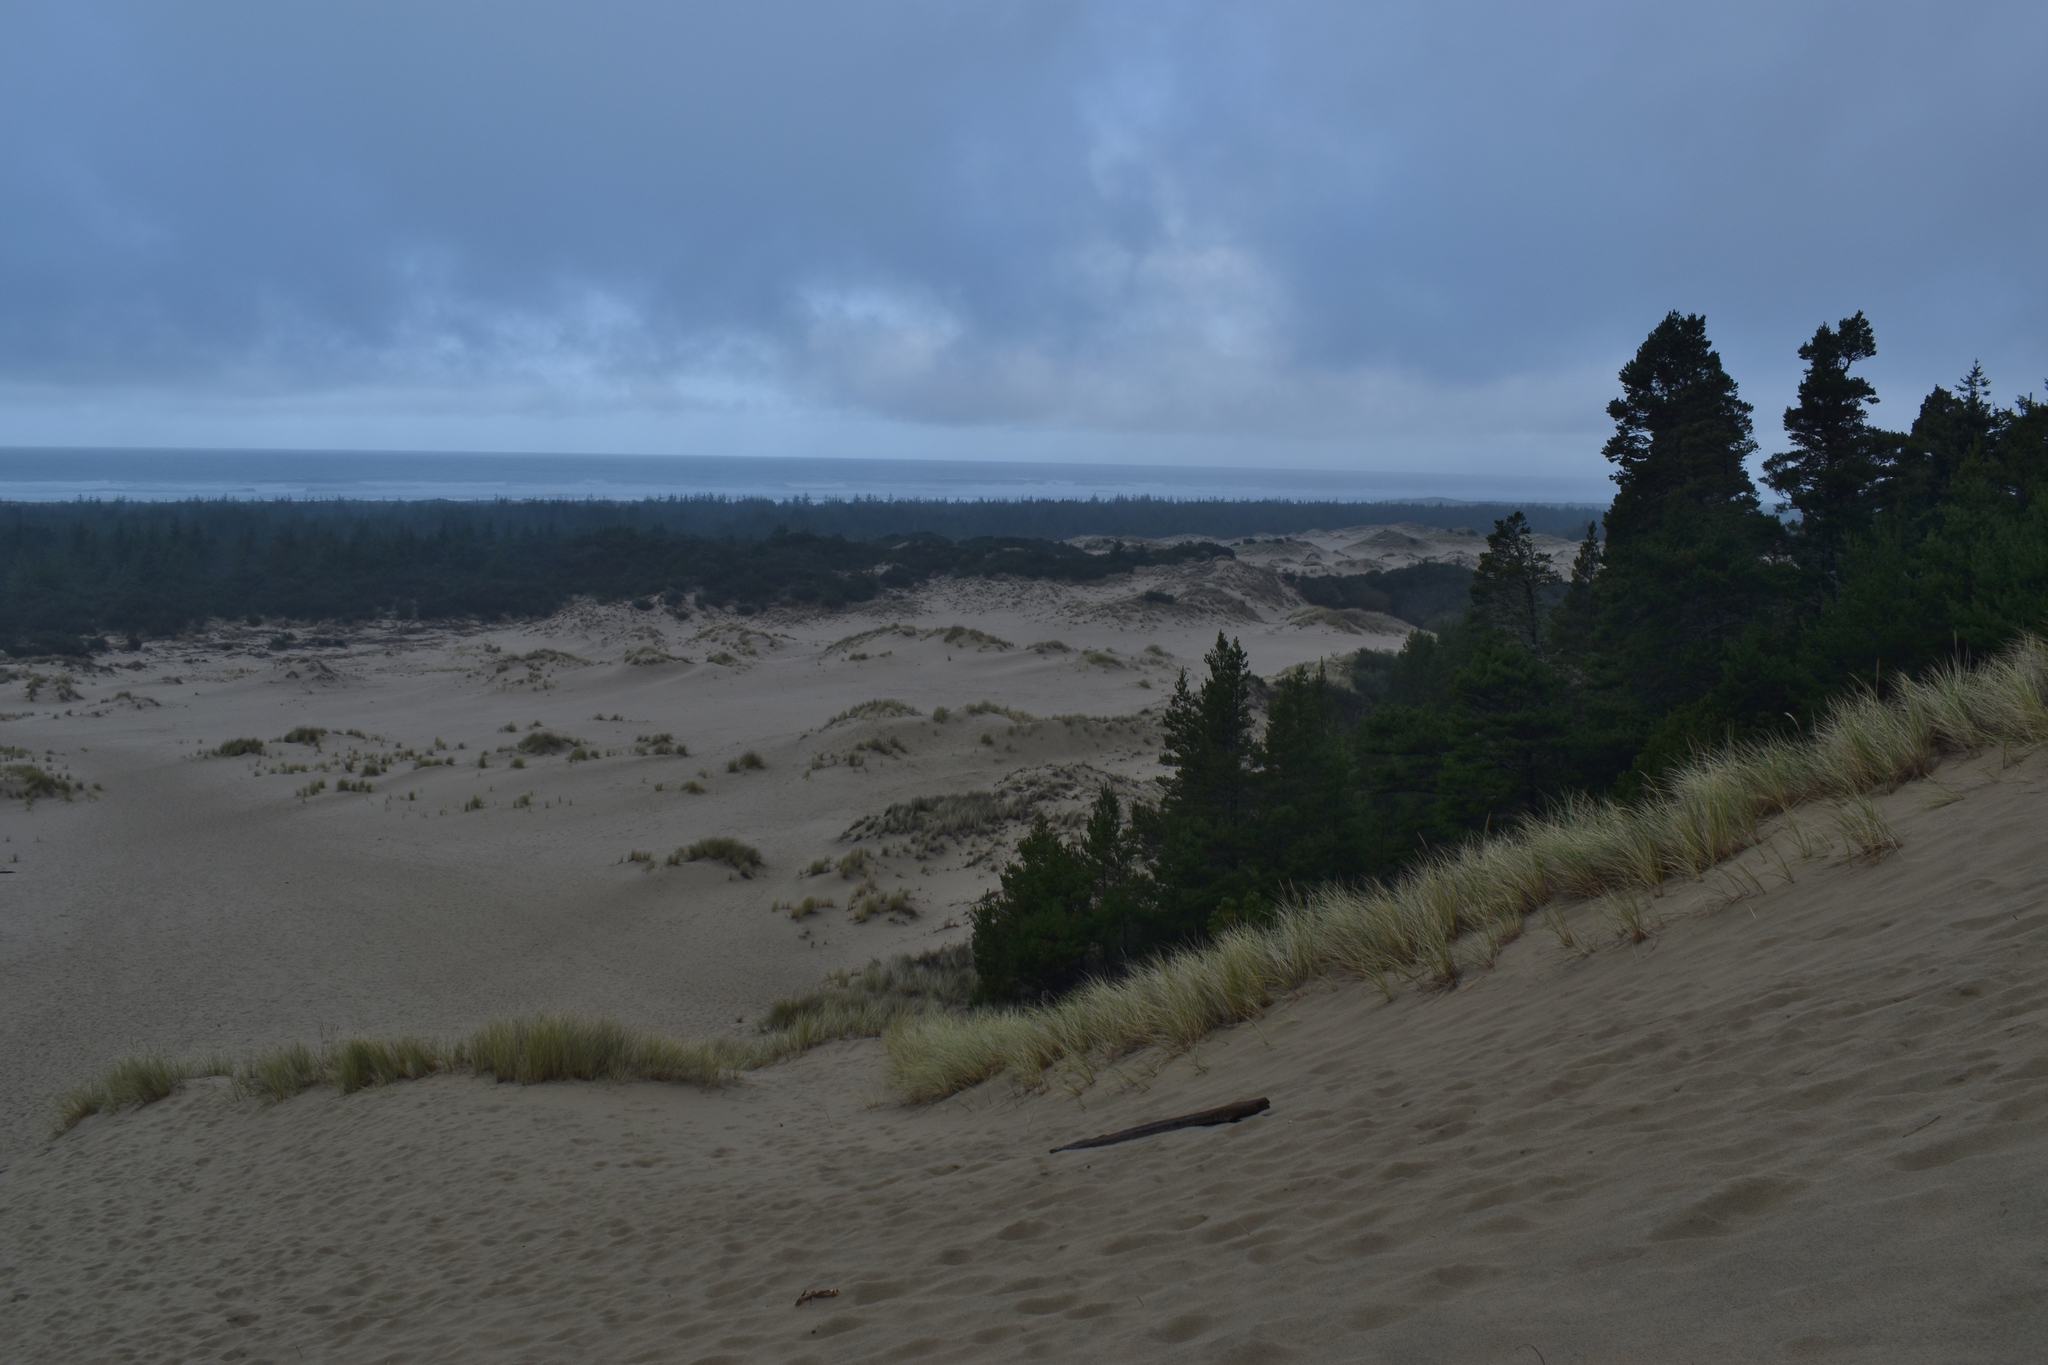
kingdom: Plantae
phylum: Tracheophyta
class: Liliopsida
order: Poales
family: Poaceae
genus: Calamagrostis
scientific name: Calamagrostis arenaria
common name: European beachgrass
